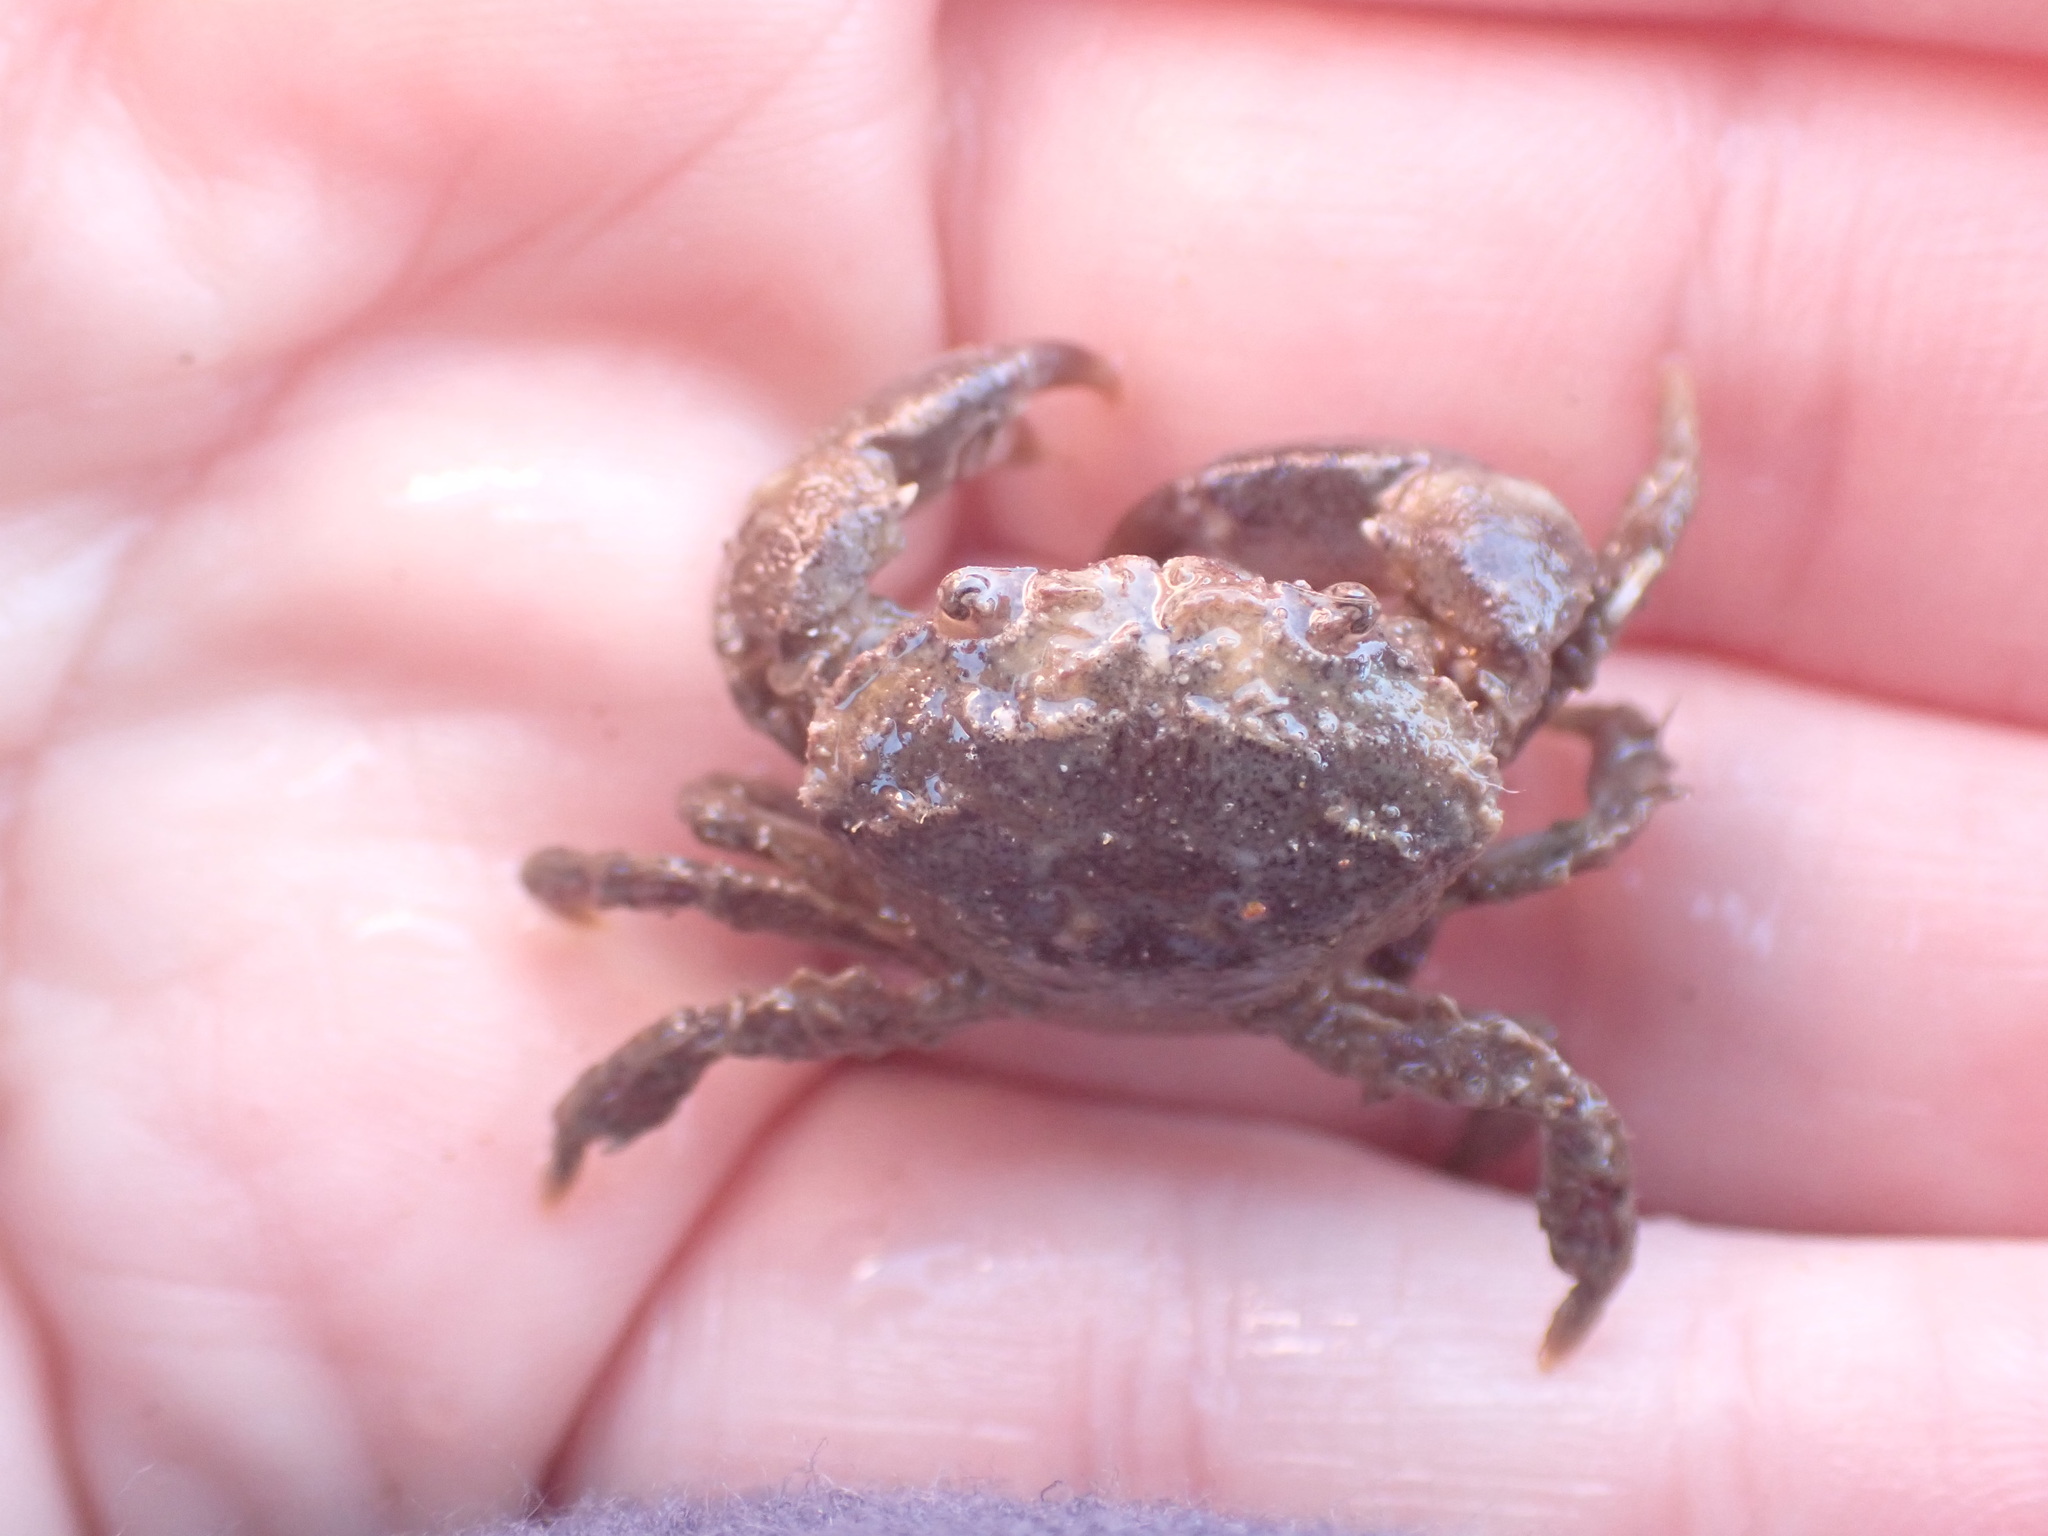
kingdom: Animalia
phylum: Arthropoda
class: Malacostraca
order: Decapoda
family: Pilumnidae
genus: Pilumnopeus
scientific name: Pilumnopeus serratifrons
